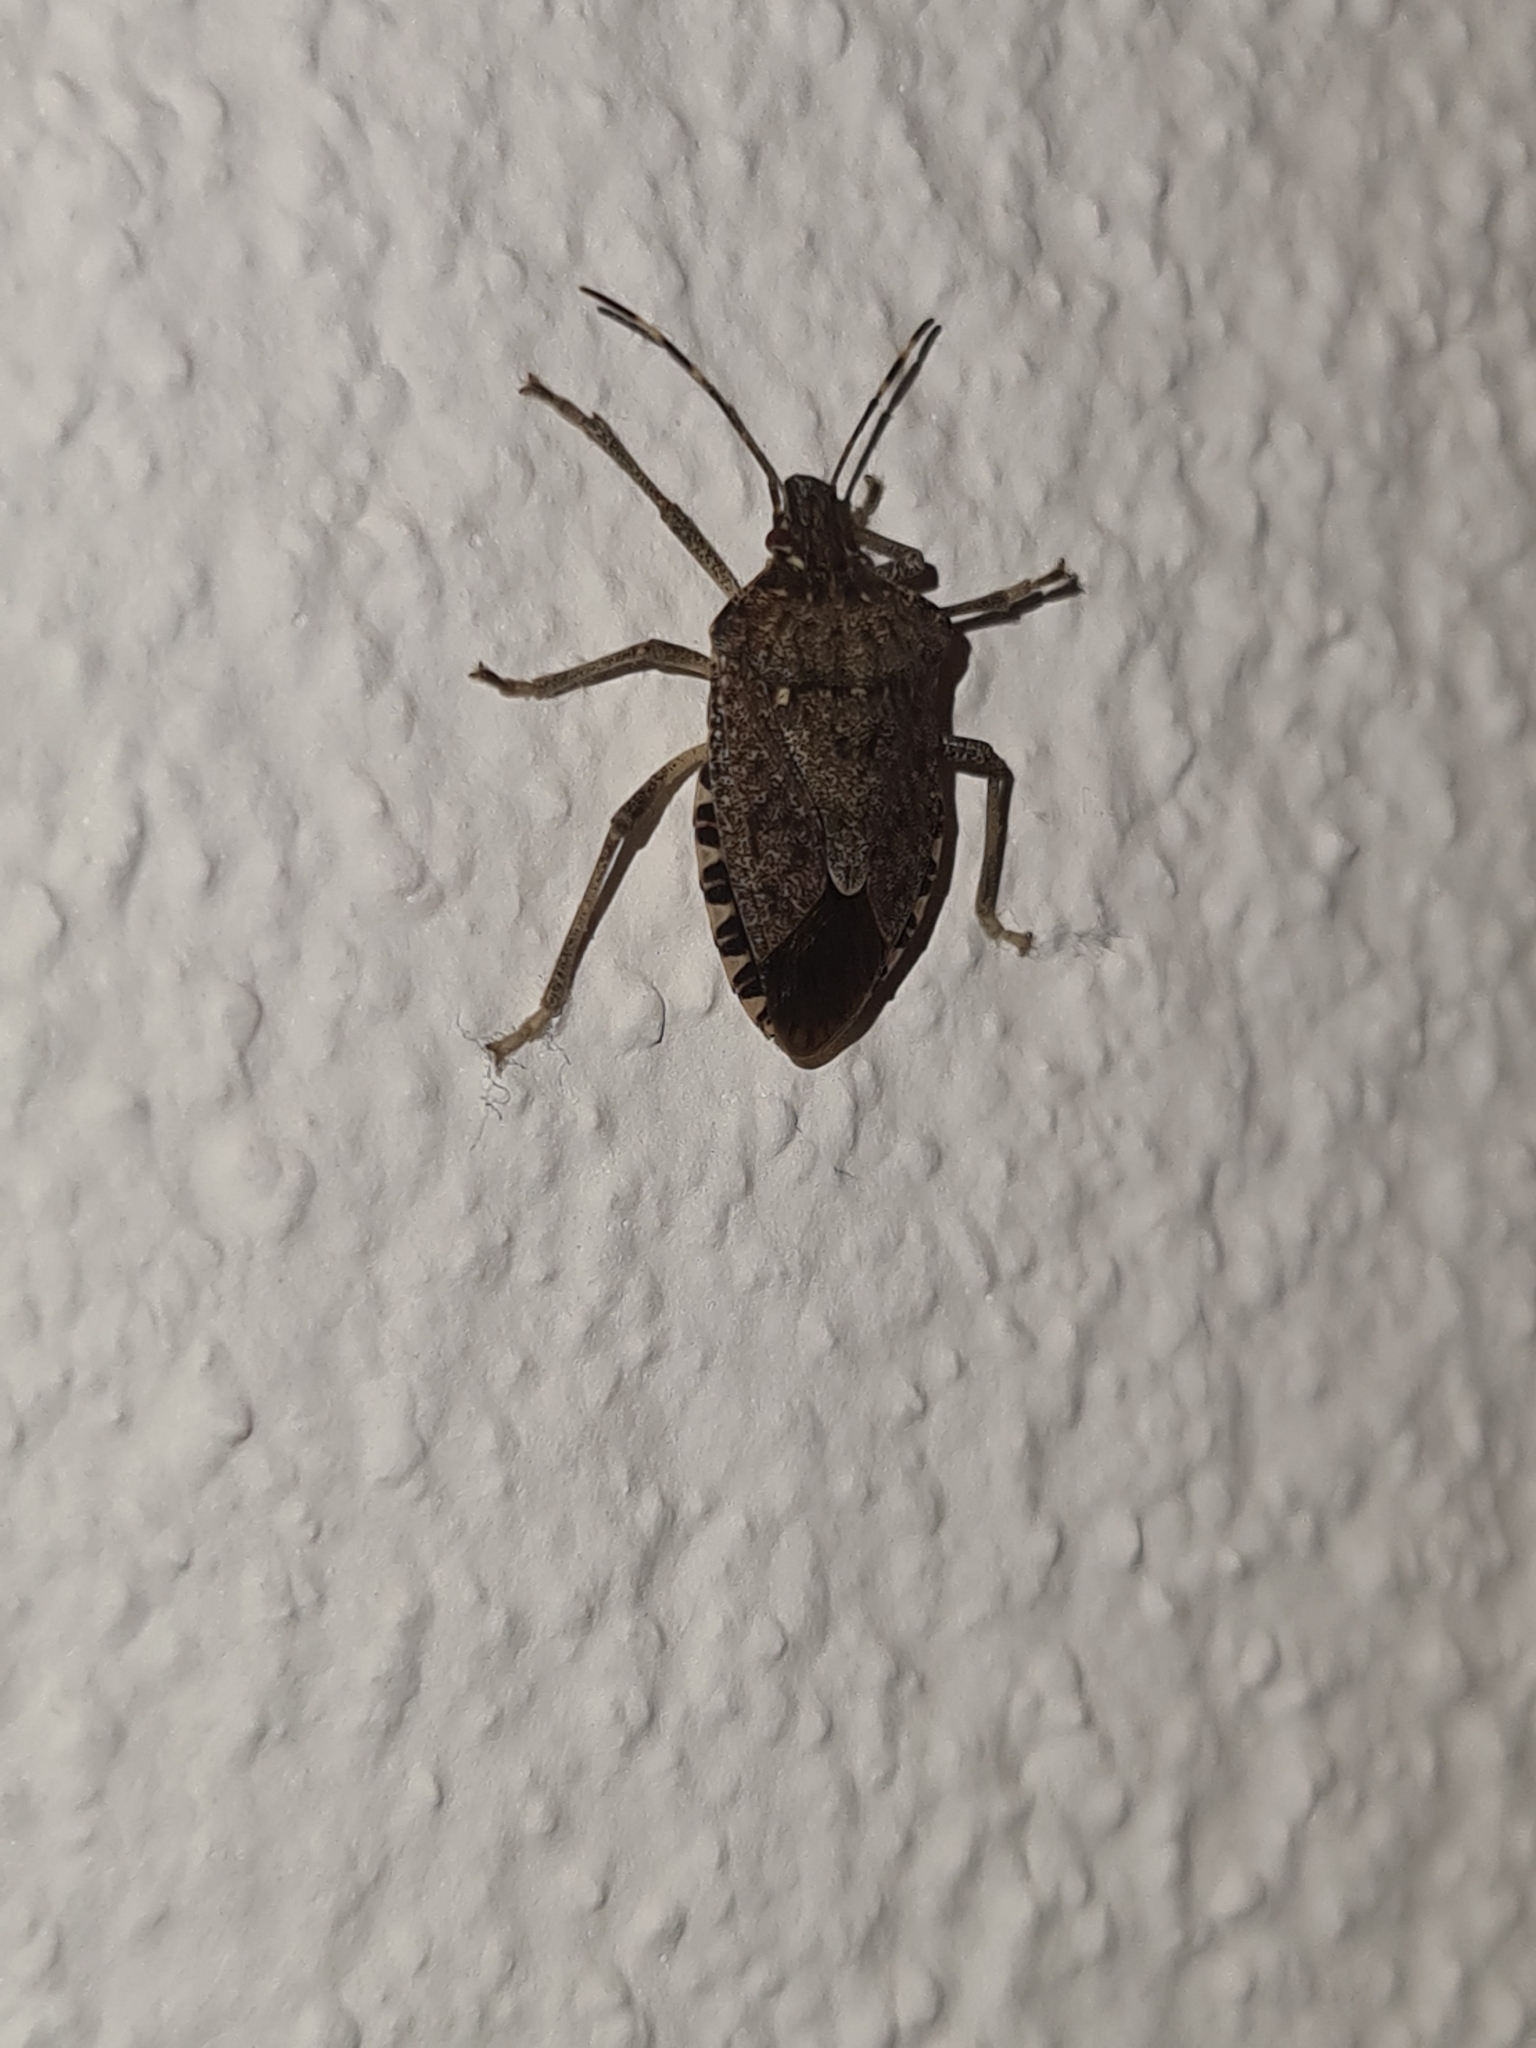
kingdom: Animalia
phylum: Arthropoda
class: Insecta
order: Hemiptera
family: Pentatomidae
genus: Halyomorpha
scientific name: Halyomorpha halys
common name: Brown marmorated stink bug
